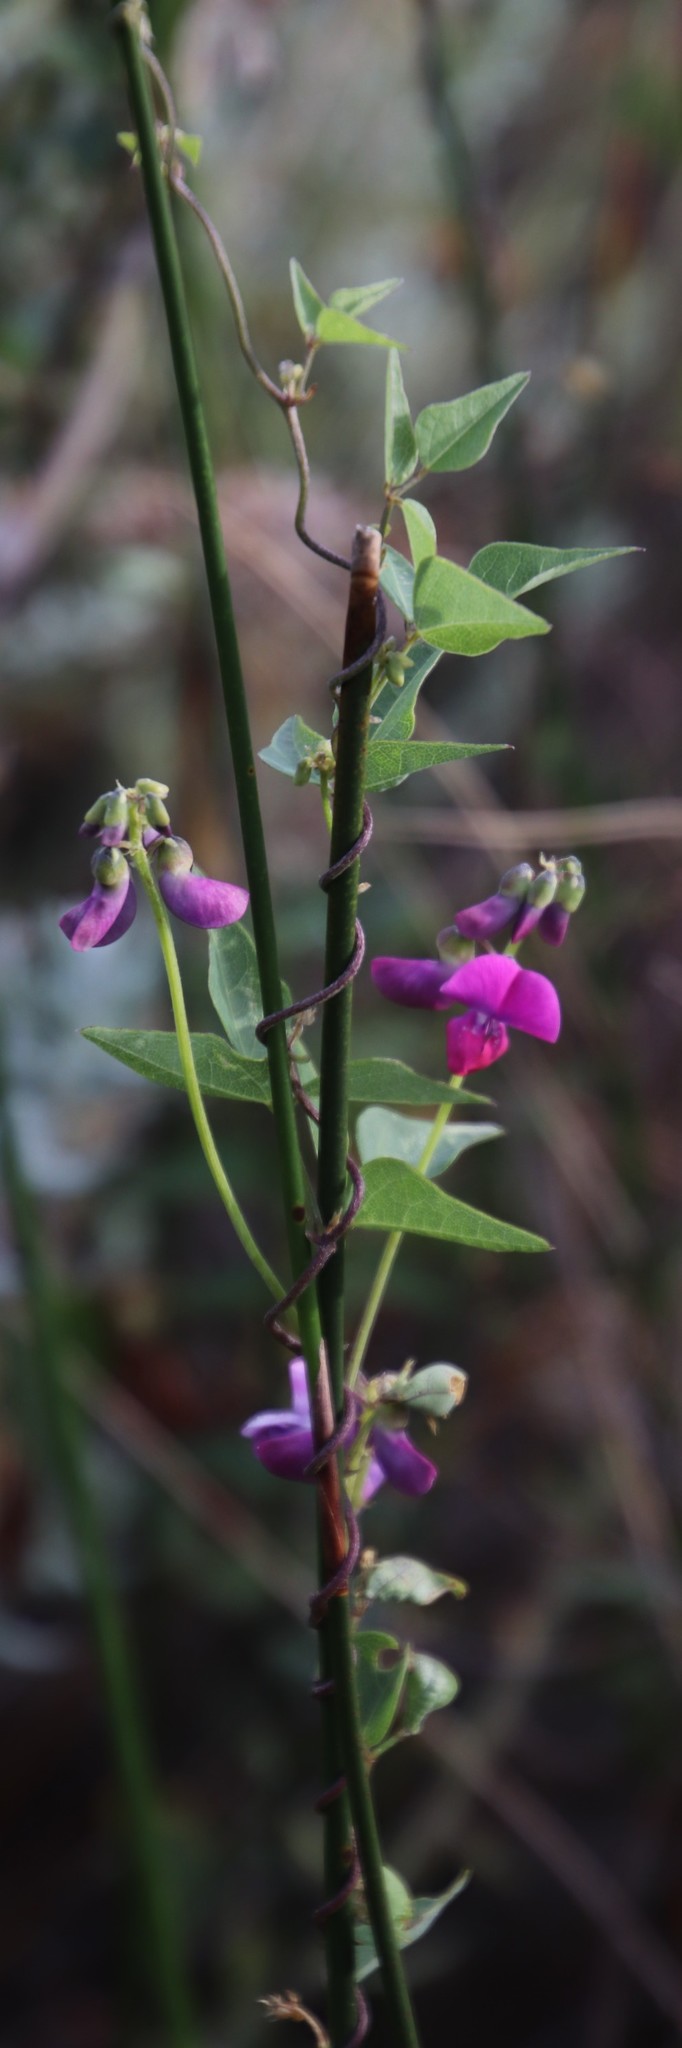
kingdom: Plantae
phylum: Tracheophyta
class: Magnoliopsida
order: Fabales
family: Fabaceae
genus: Dipogon
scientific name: Dipogon lignosus
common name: Okie bean
